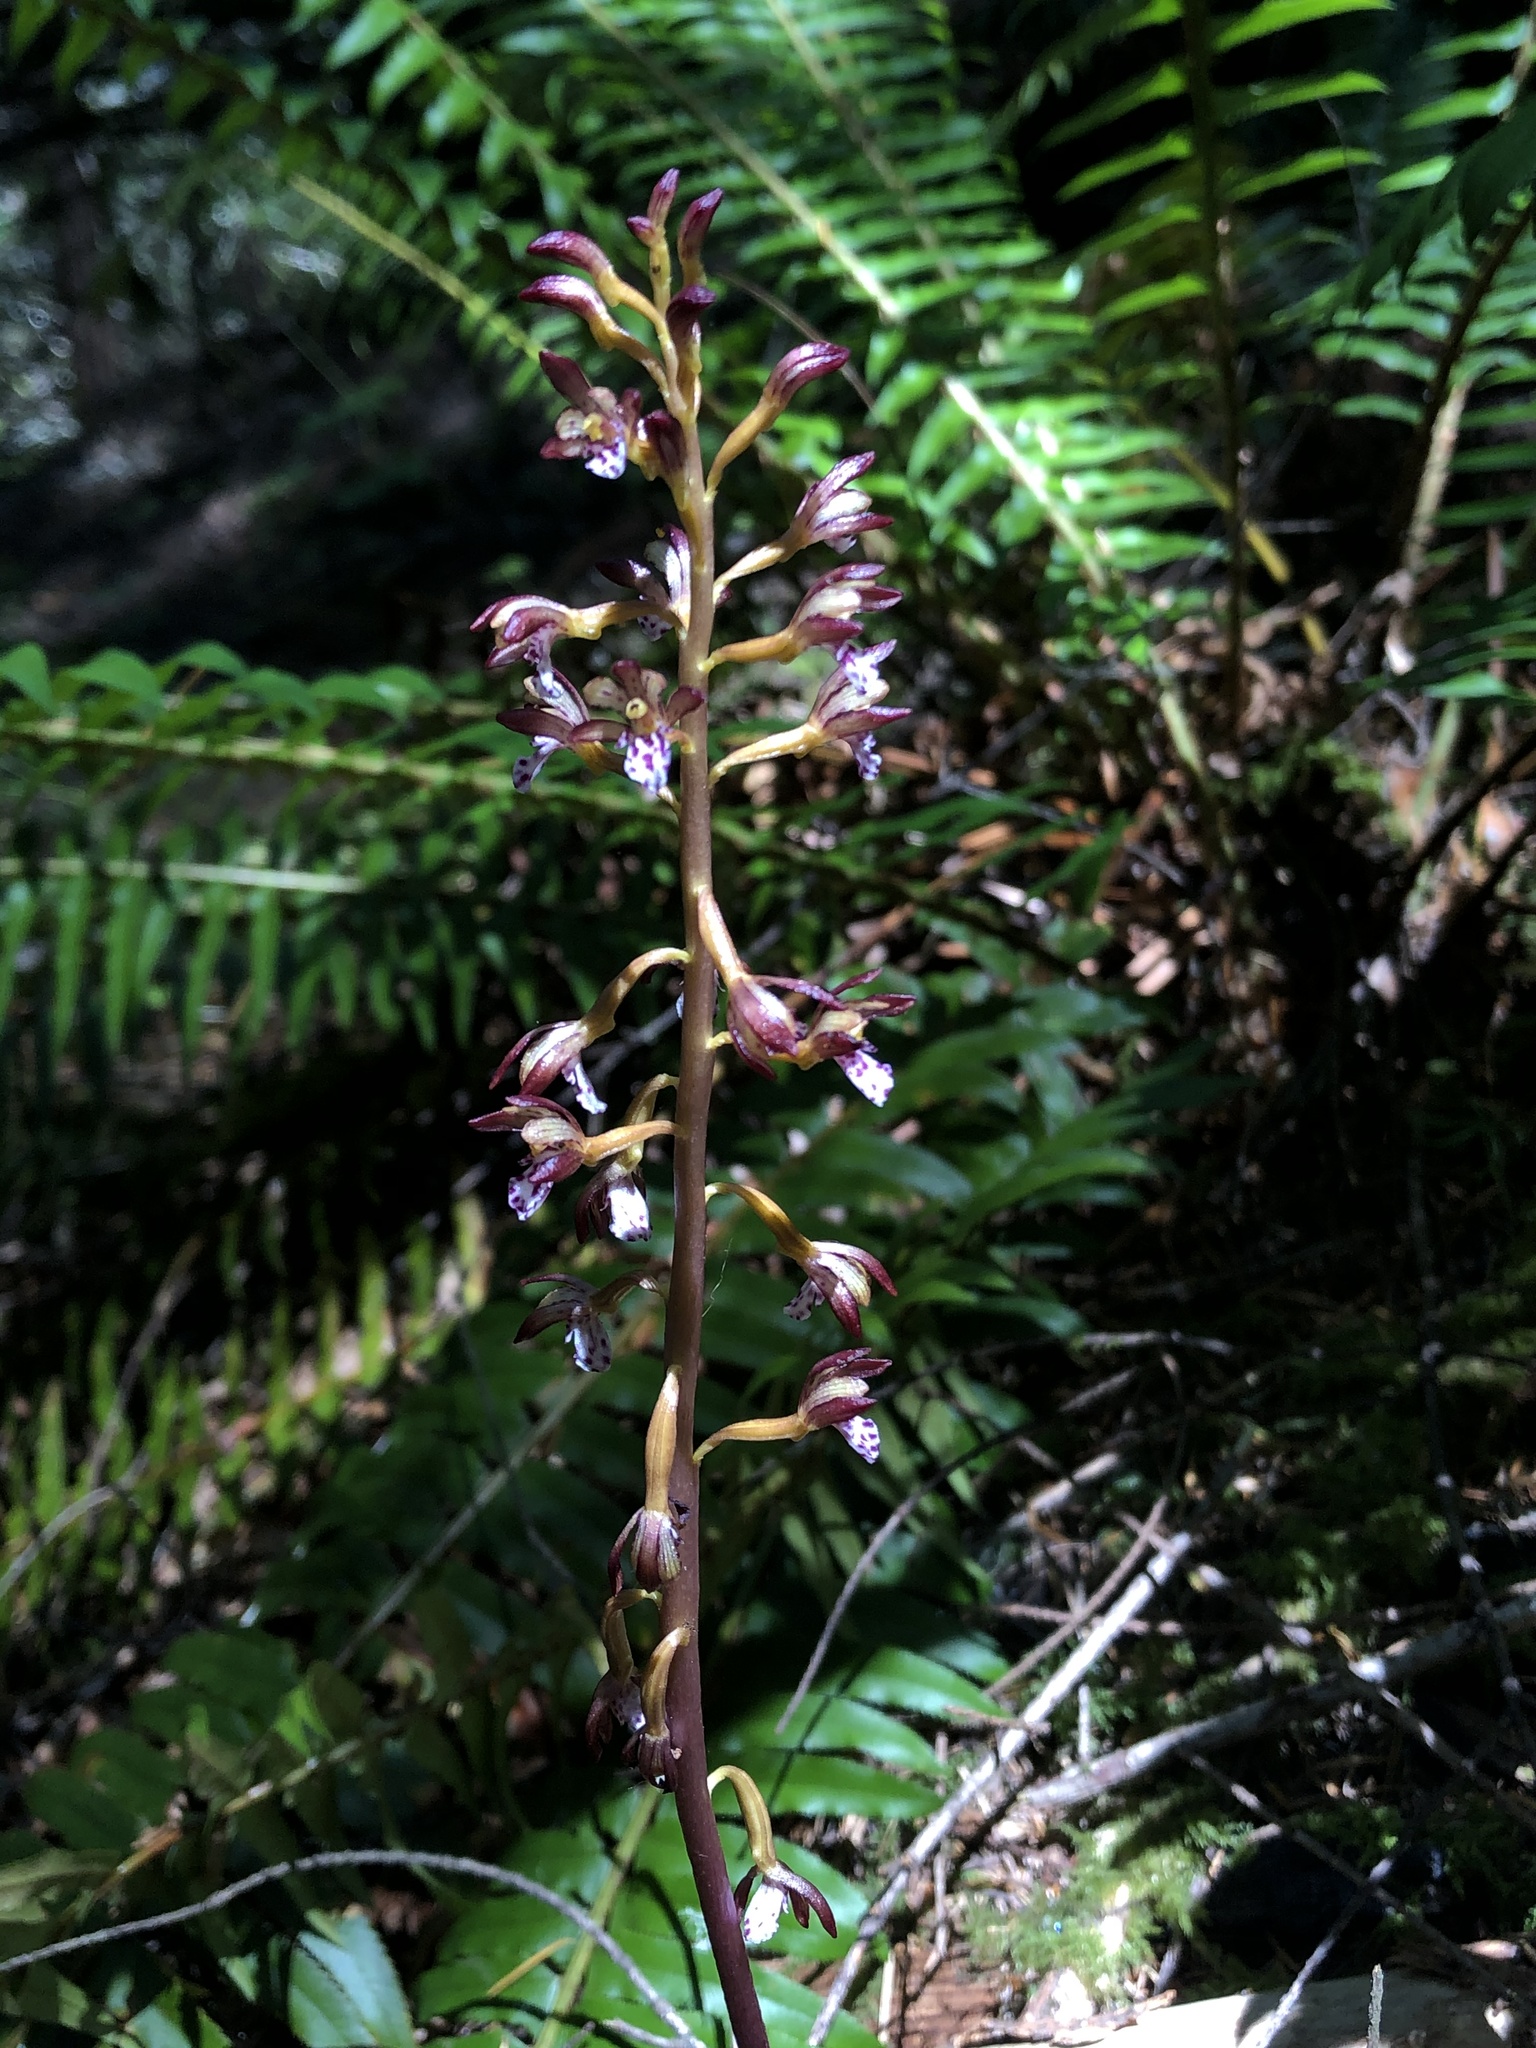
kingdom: Plantae
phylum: Tracheophyta
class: Liliopsida
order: Asparagales
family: Orchidaceae
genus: Corallorhiza
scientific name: Corallorhiza maculata
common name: Spotted coralroot
